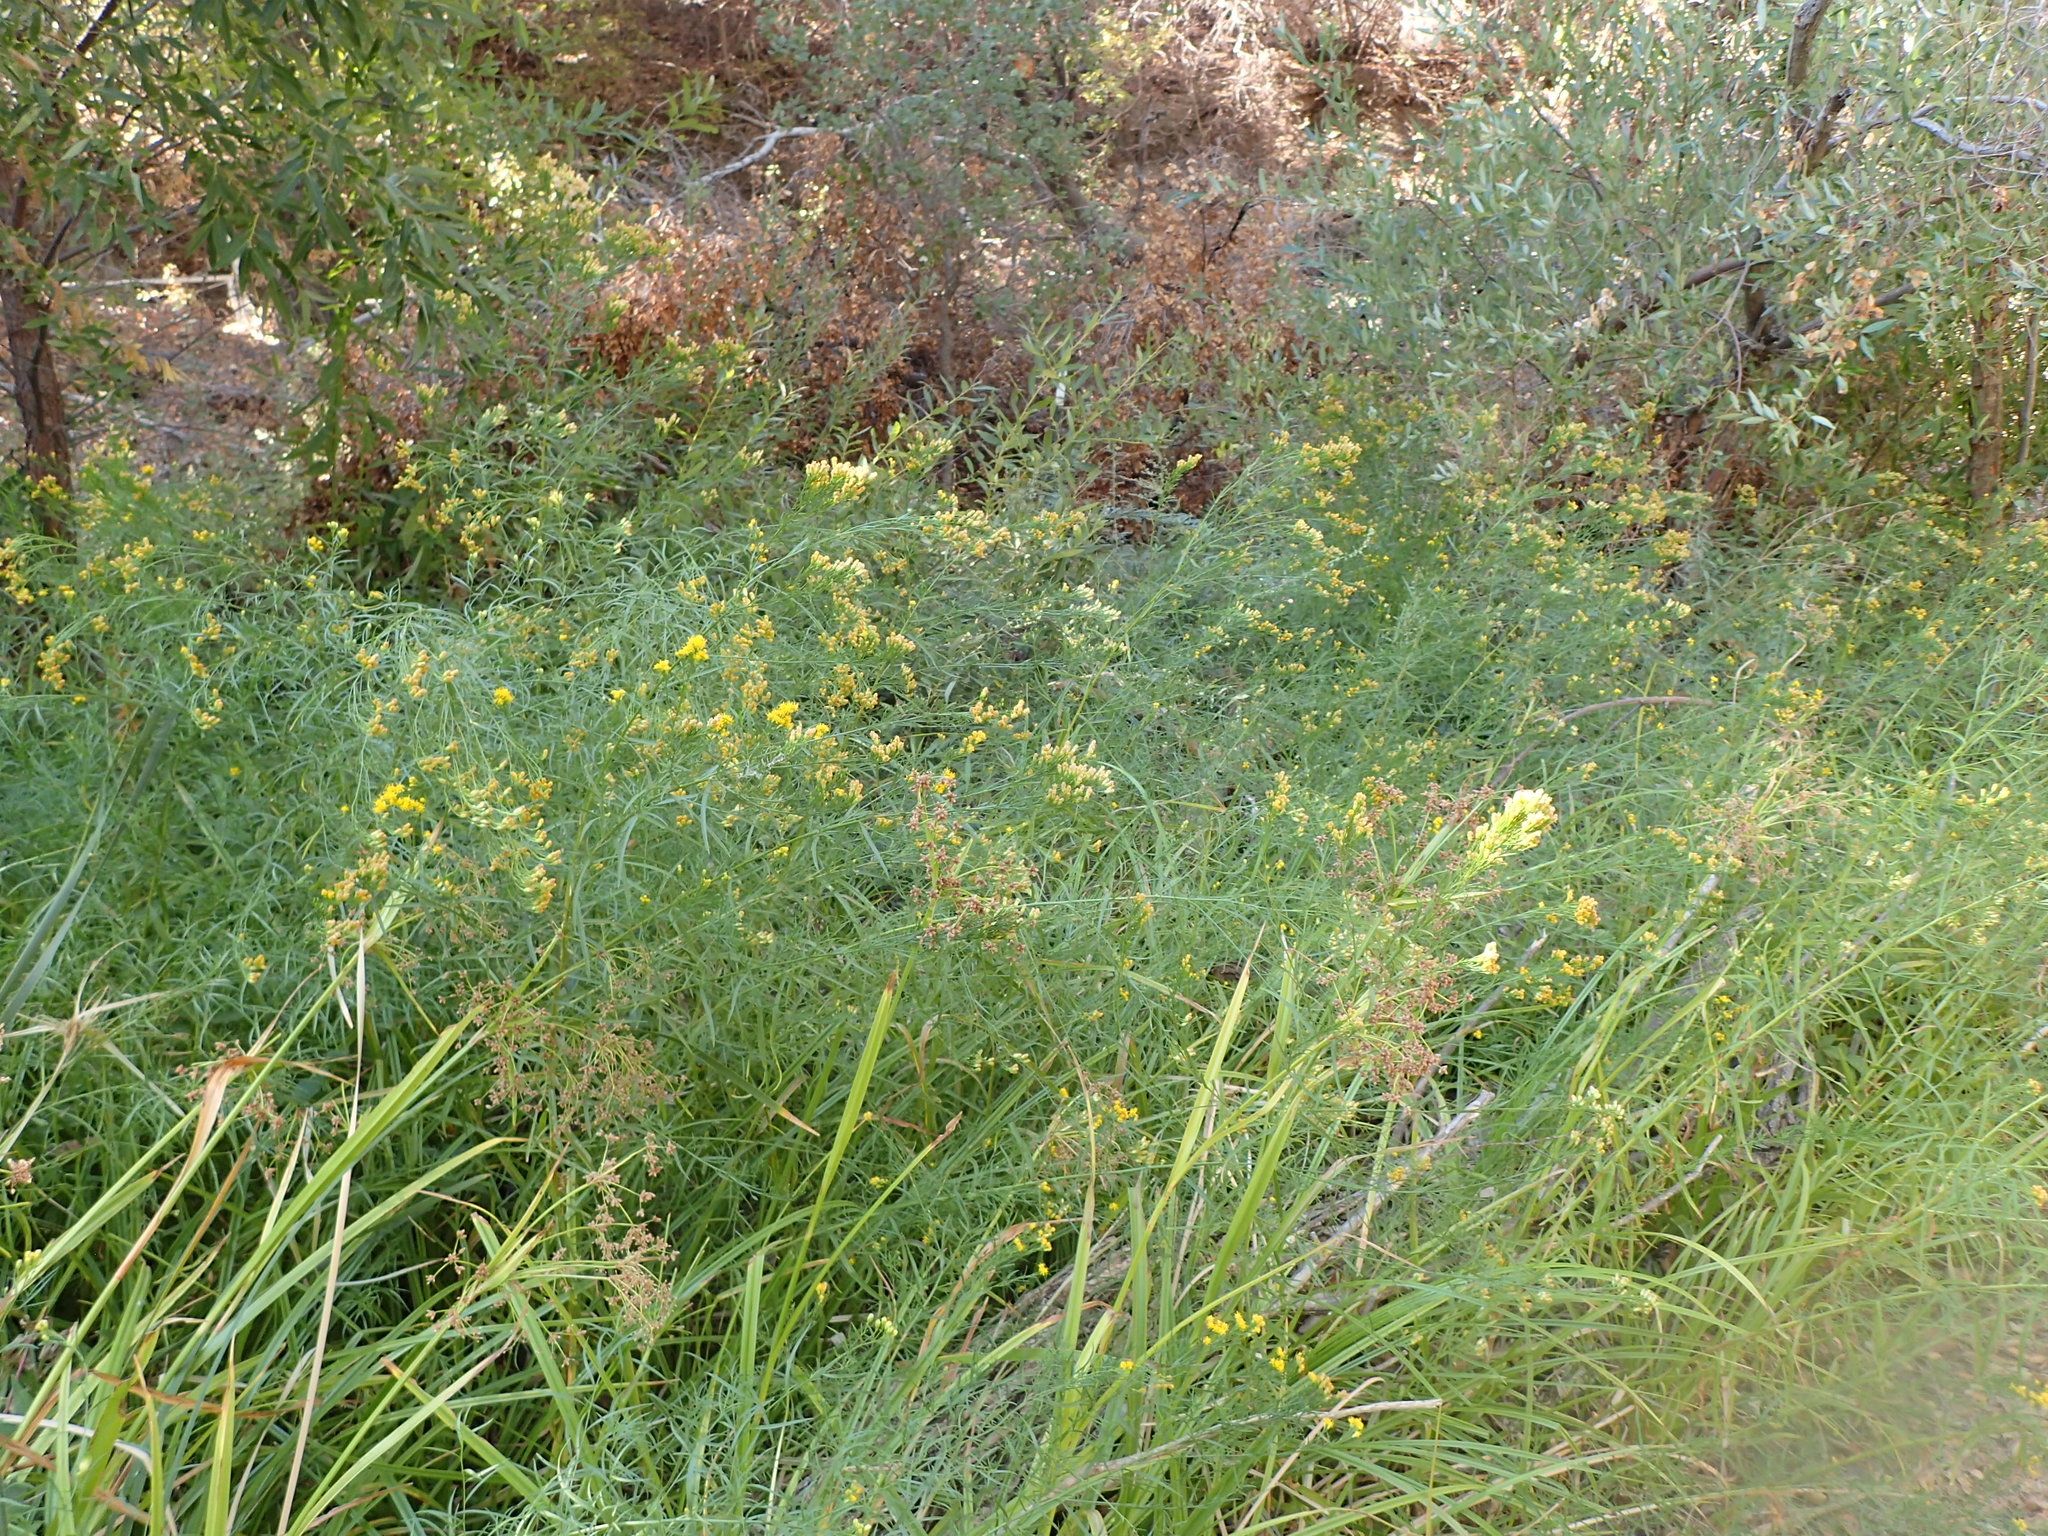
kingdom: Plantae
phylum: Tracheophyta
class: Magnoliopsida
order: Asterales
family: Asteraceae
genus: Euthamia
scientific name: Euthamia occidentalis
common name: Western goldentop
